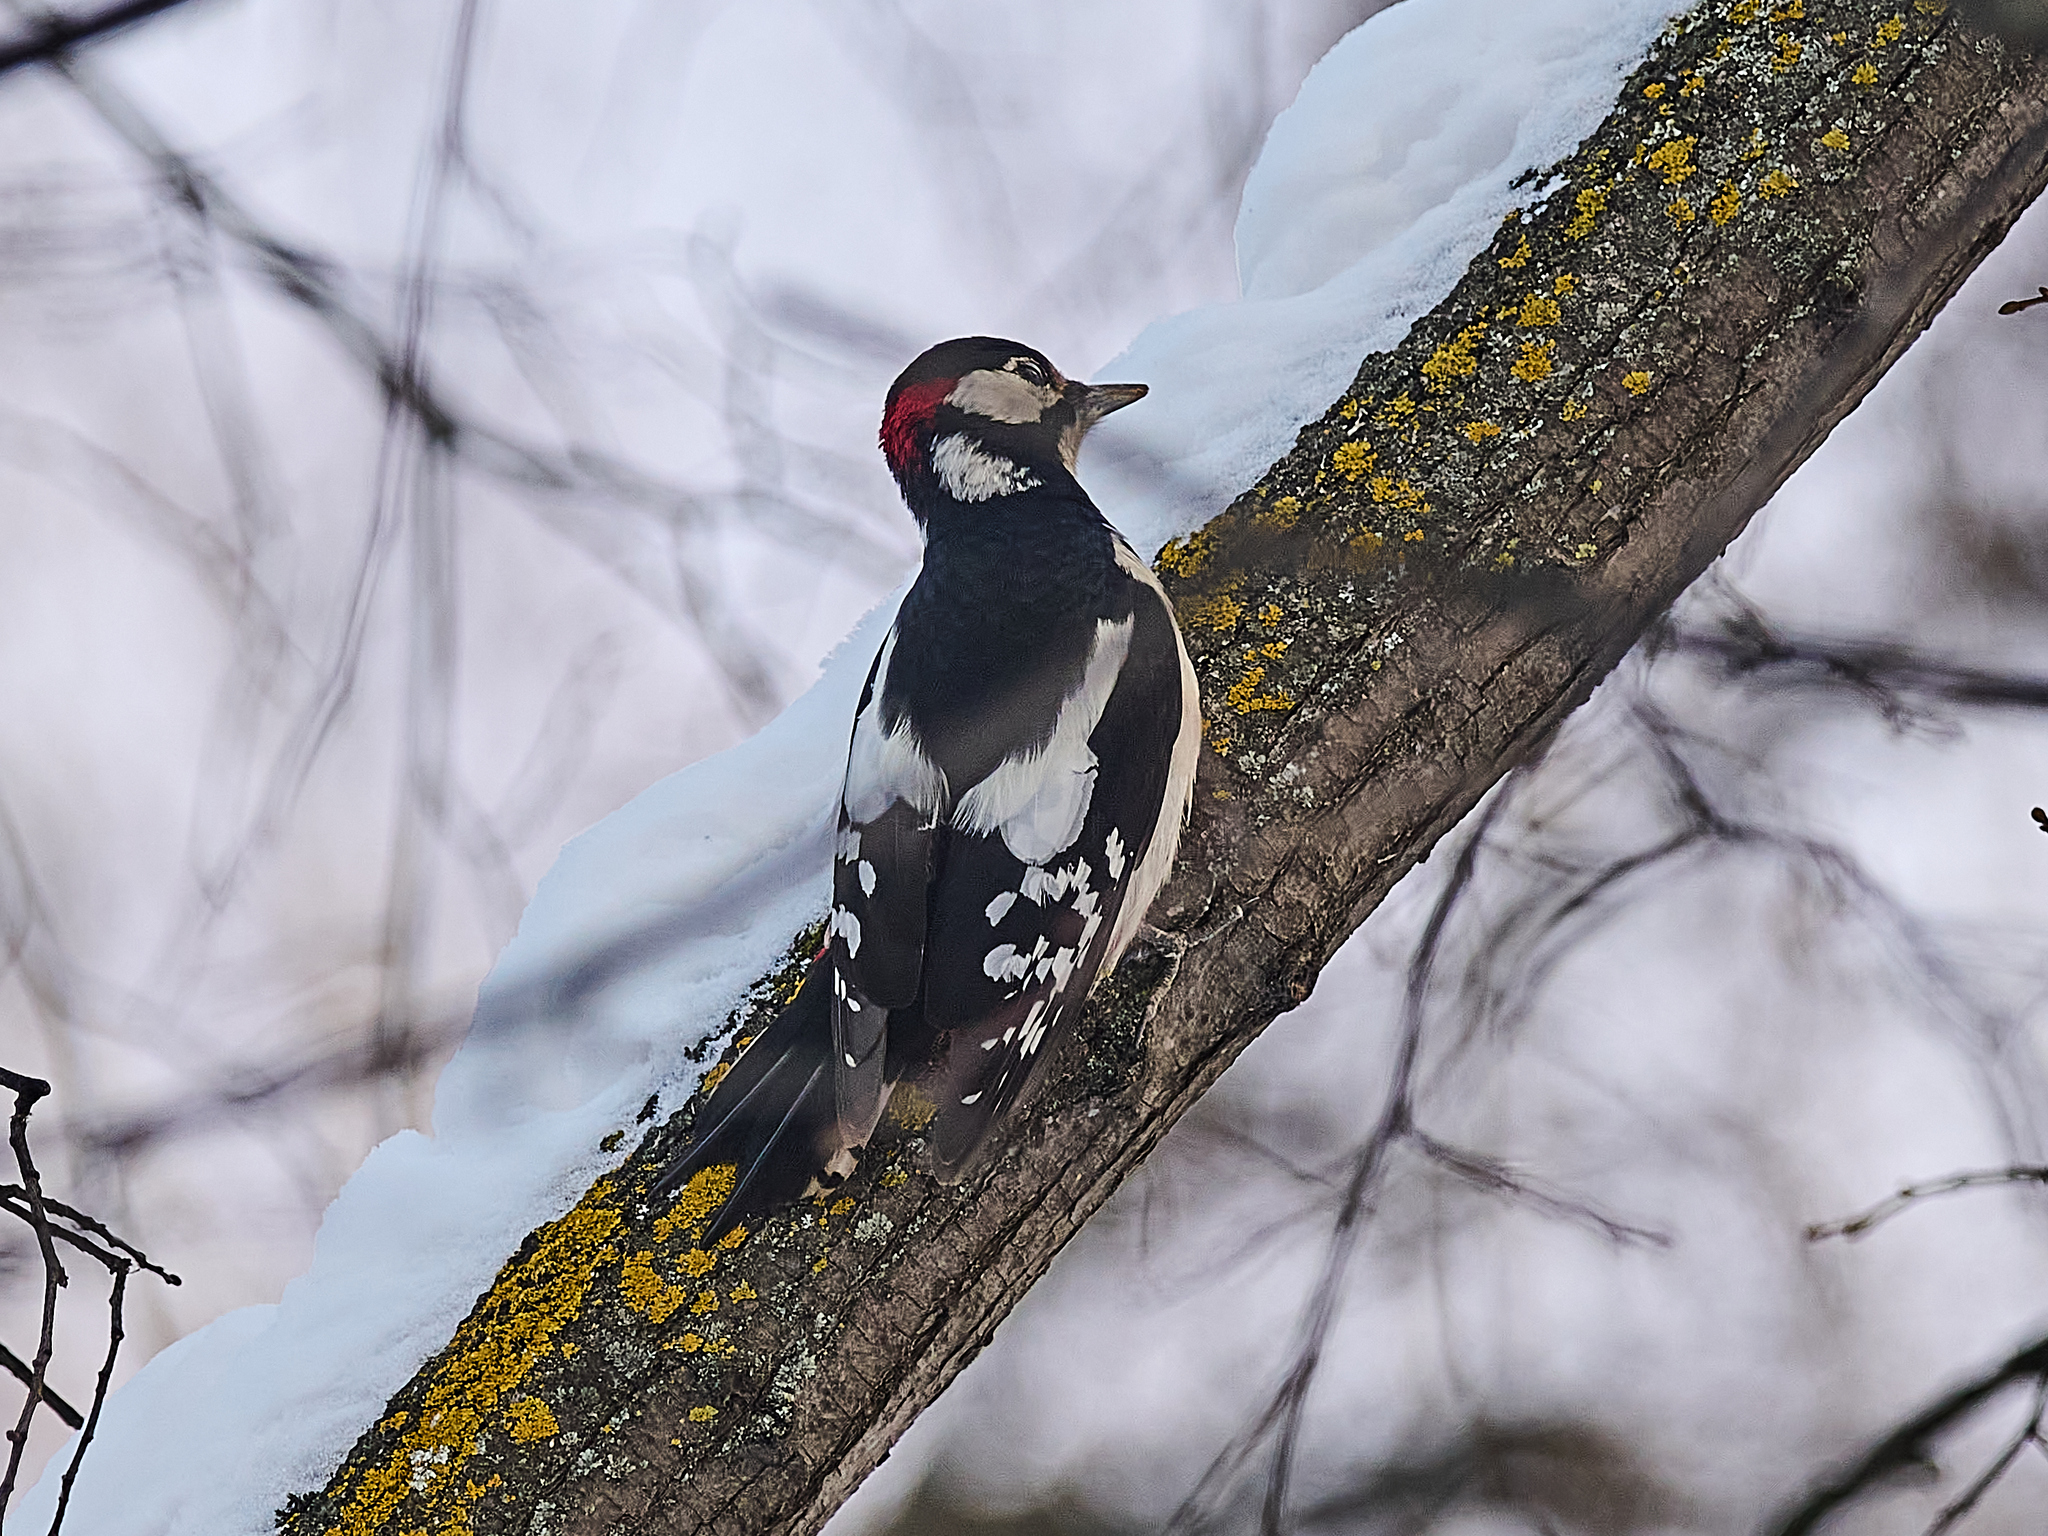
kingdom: Animalia
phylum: Chordata
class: Aves
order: Piciformes
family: Picidae
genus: Dendrocopos
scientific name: Dendrocopos major
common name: Great spotted woodpecker
